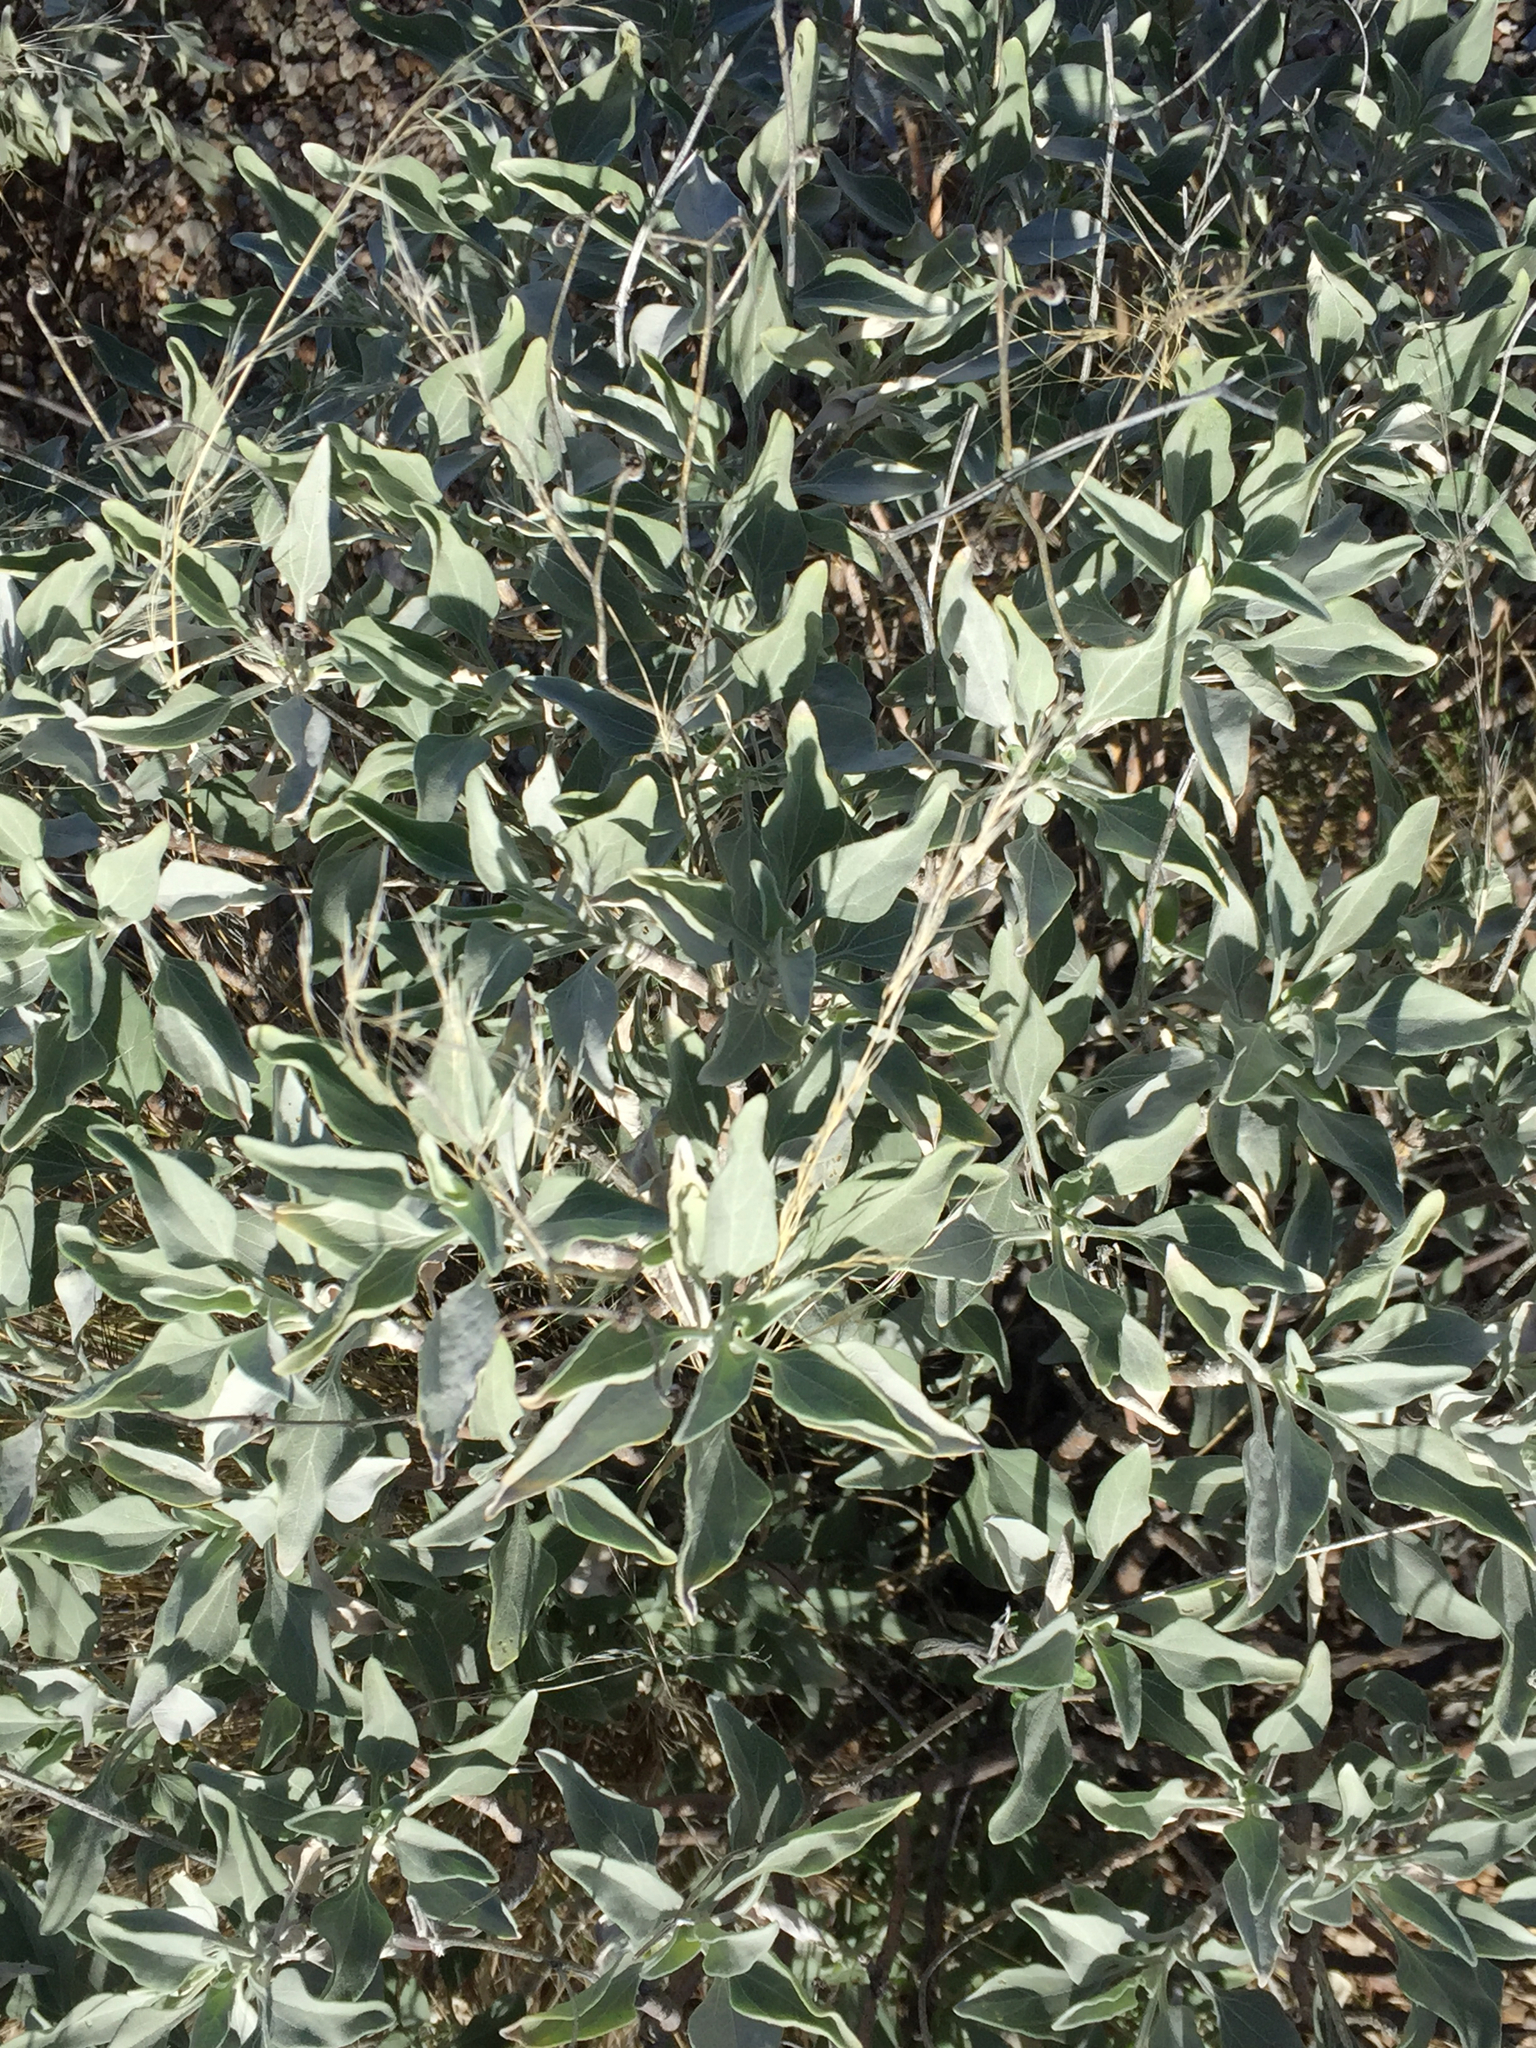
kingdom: Plantae
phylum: Tracheophyta
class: Magnoliopsida
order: Asterales
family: Asteraceae
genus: Encelia
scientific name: Encelia farinosa
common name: Brittlebush
